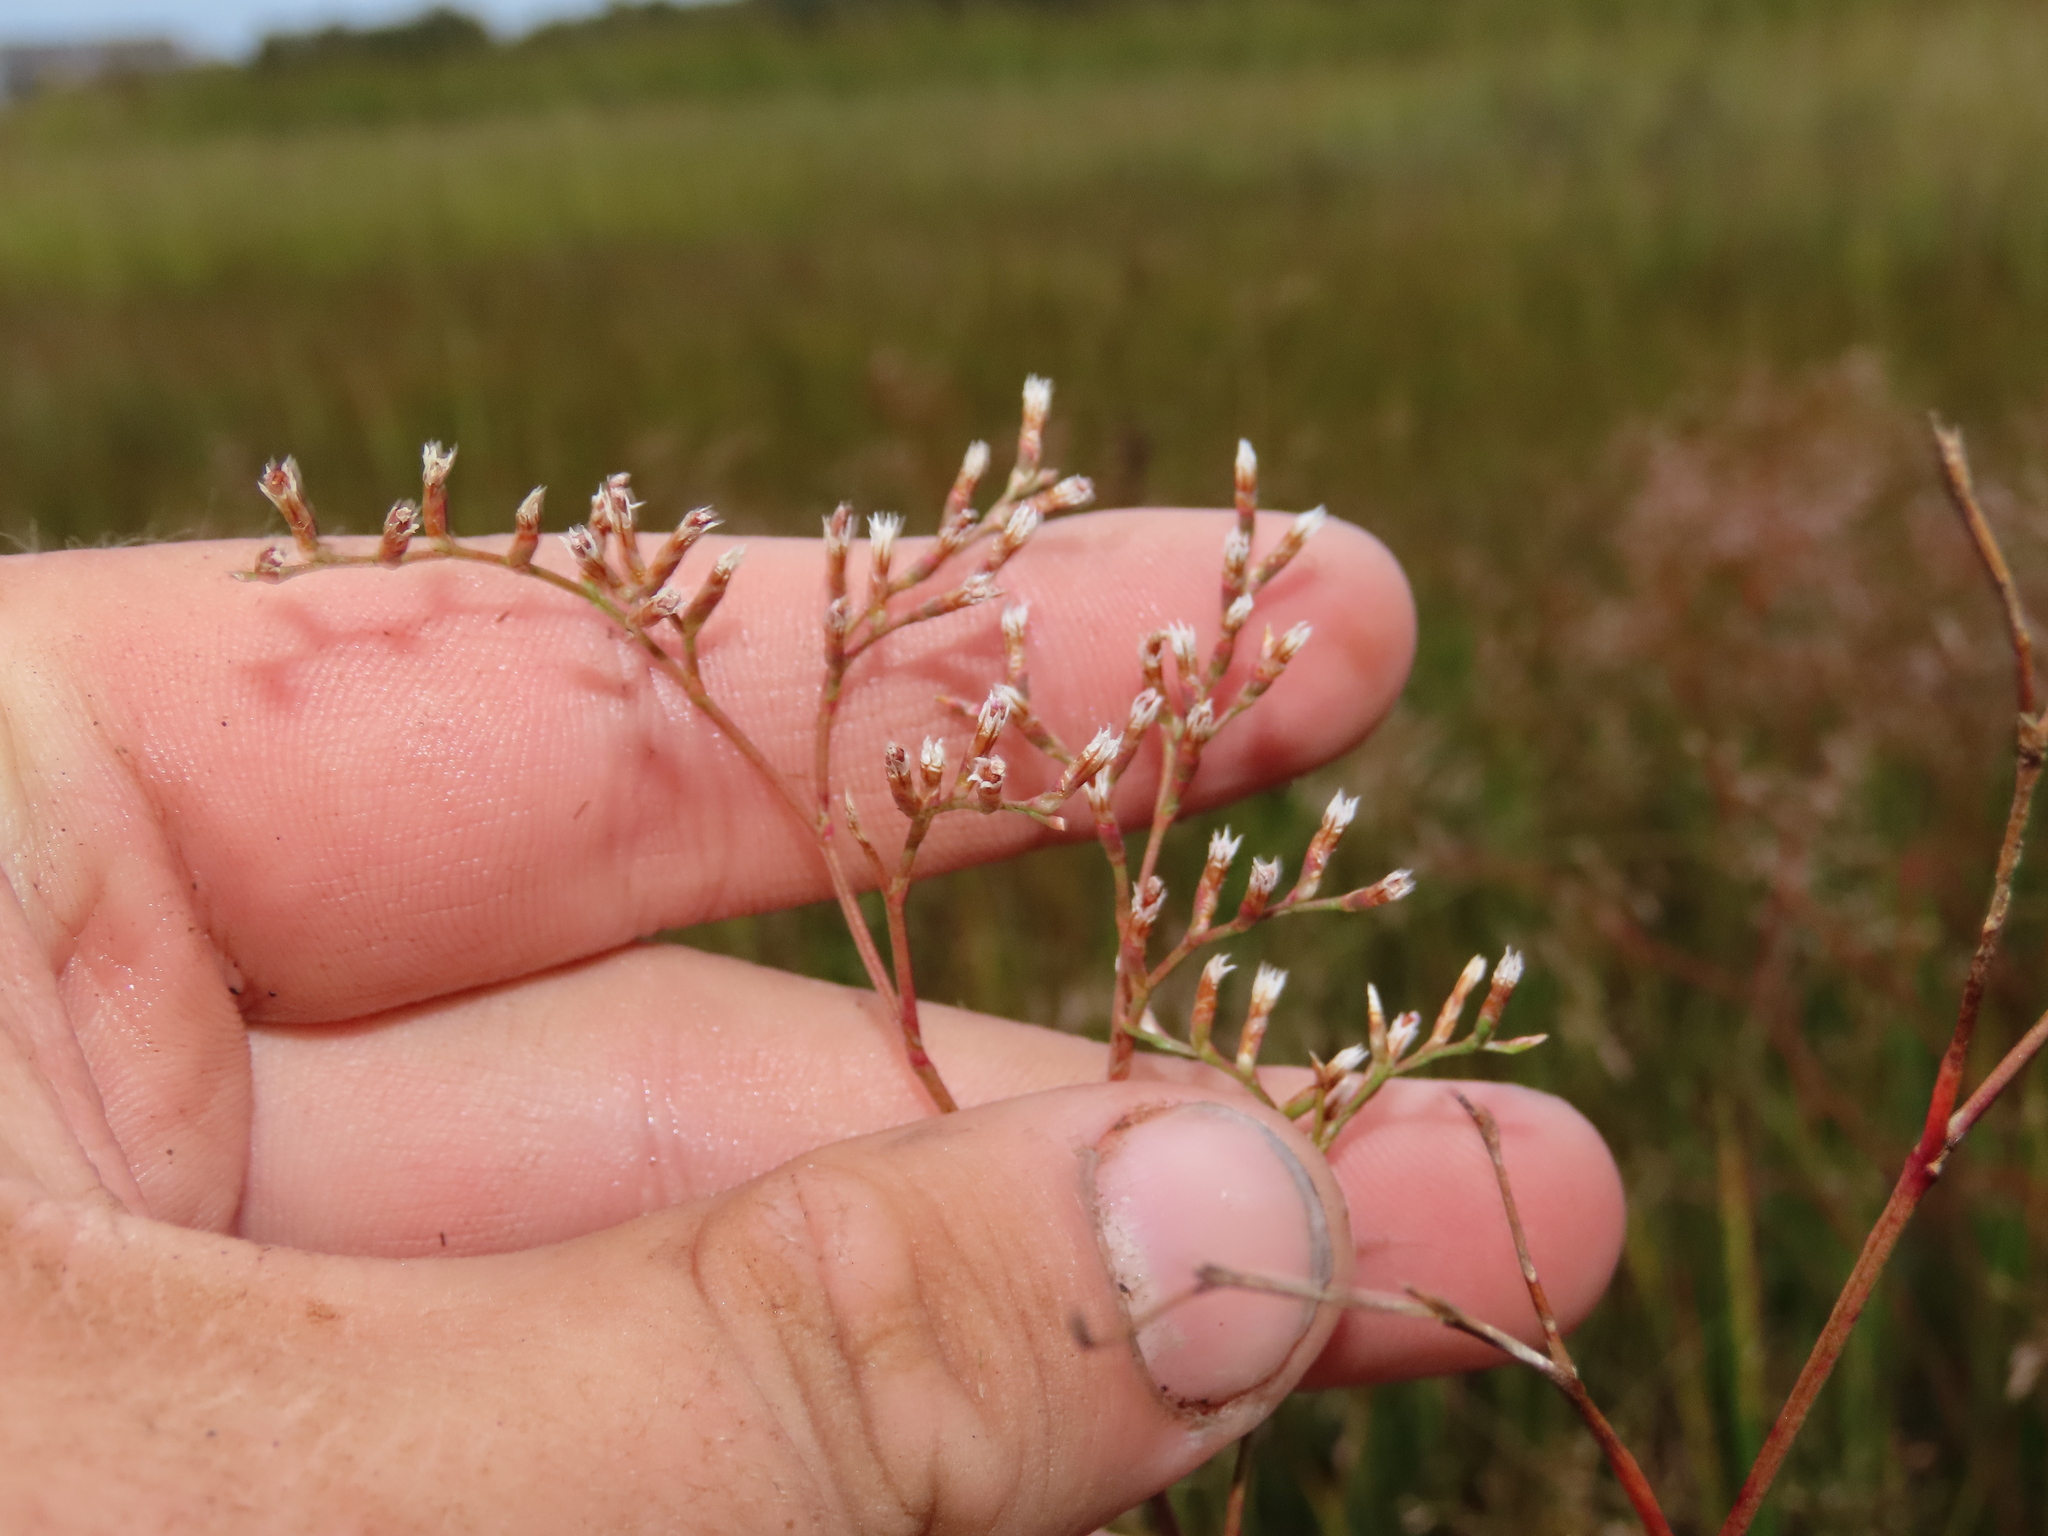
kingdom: Plantae
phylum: Tracheophyta
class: Magnoliopsida
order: Caryophyllales
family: Plumbaginaceae
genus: Limonium
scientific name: Limonium carolinianum
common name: Carolina sea lavender
